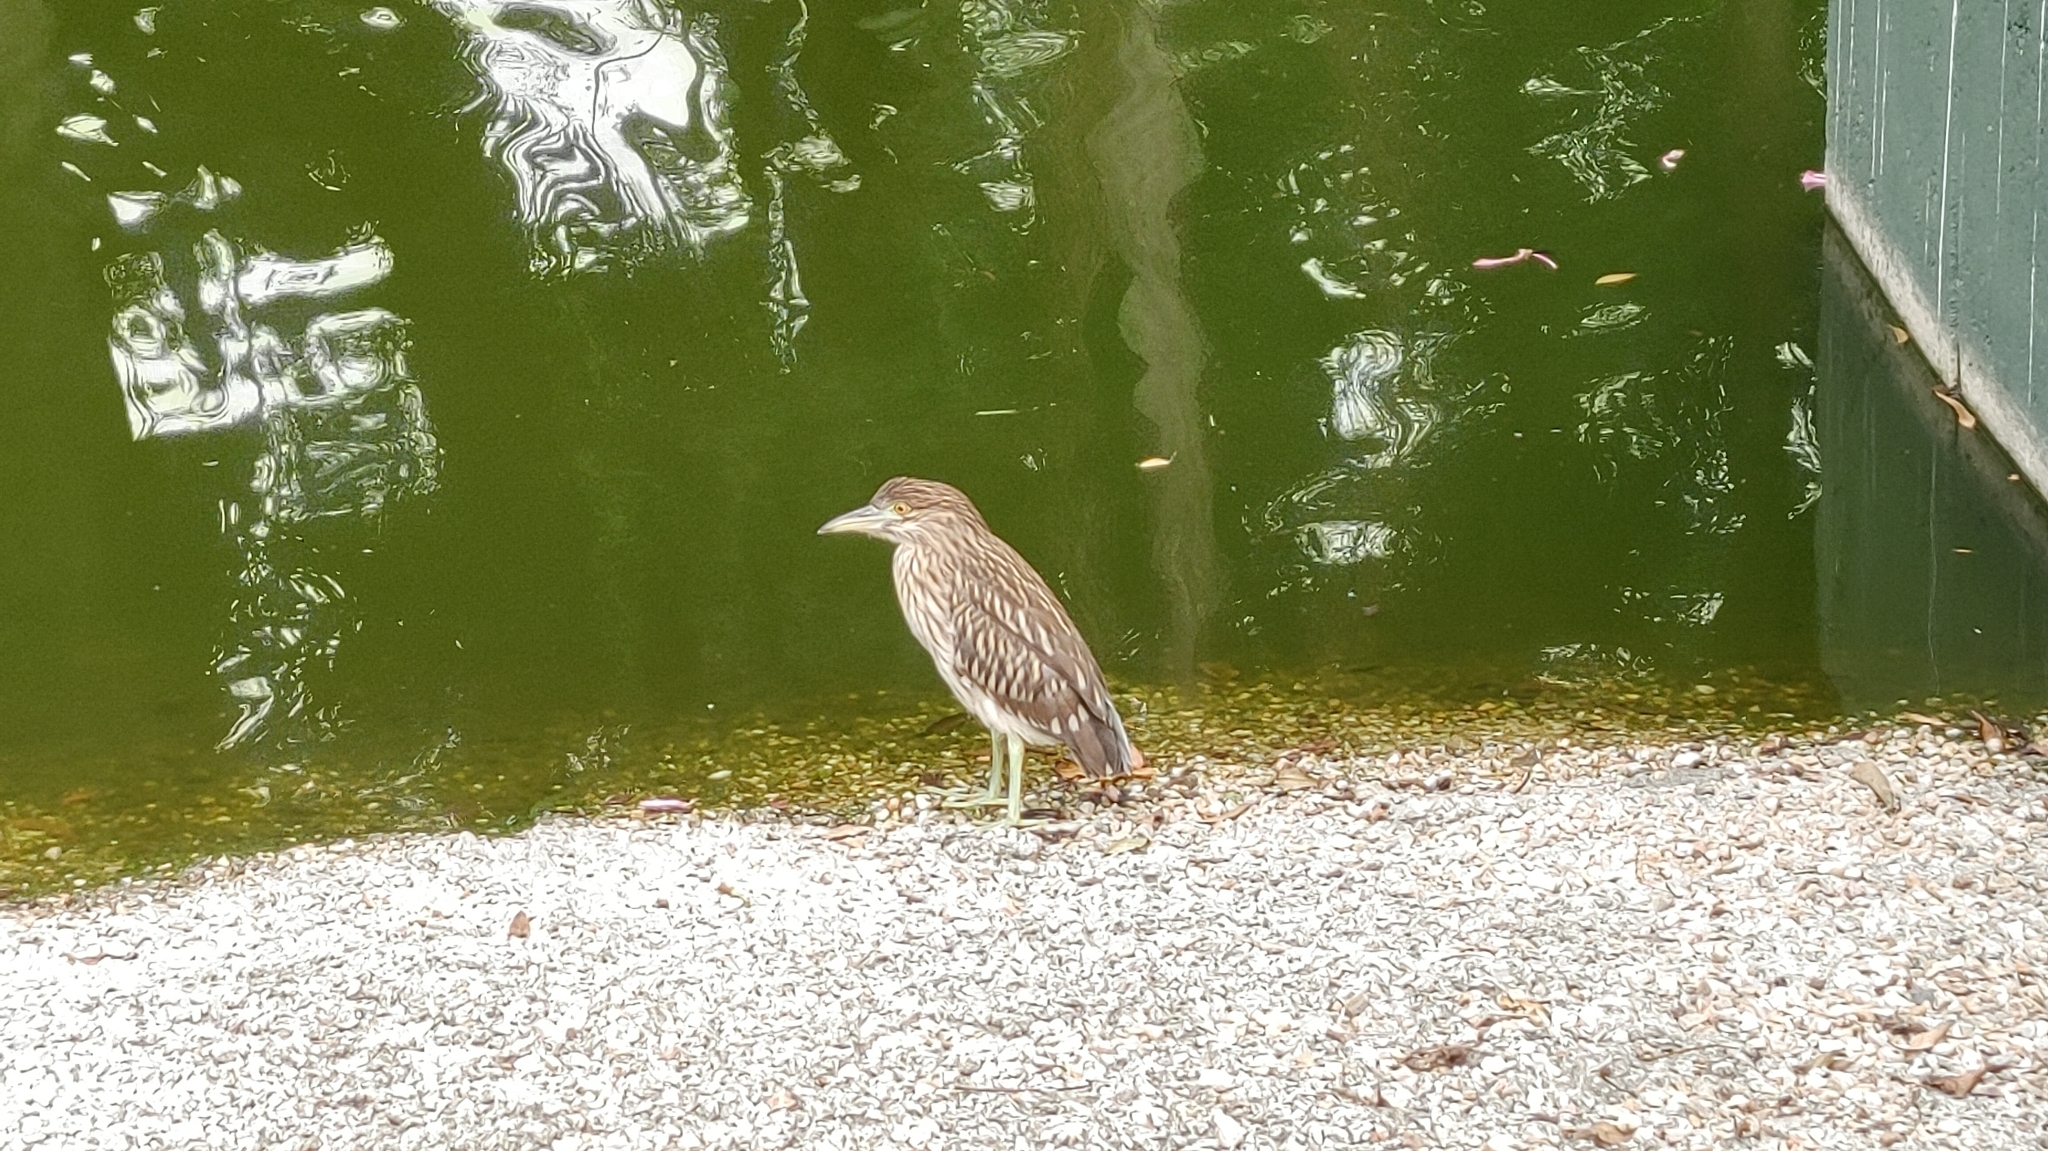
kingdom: Animalia
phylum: Chordata
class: Aves
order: Pelecaniformes
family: Ardeidae
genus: Nycticorax
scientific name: Nycticorax nycticorax
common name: Black-crowned night heron
